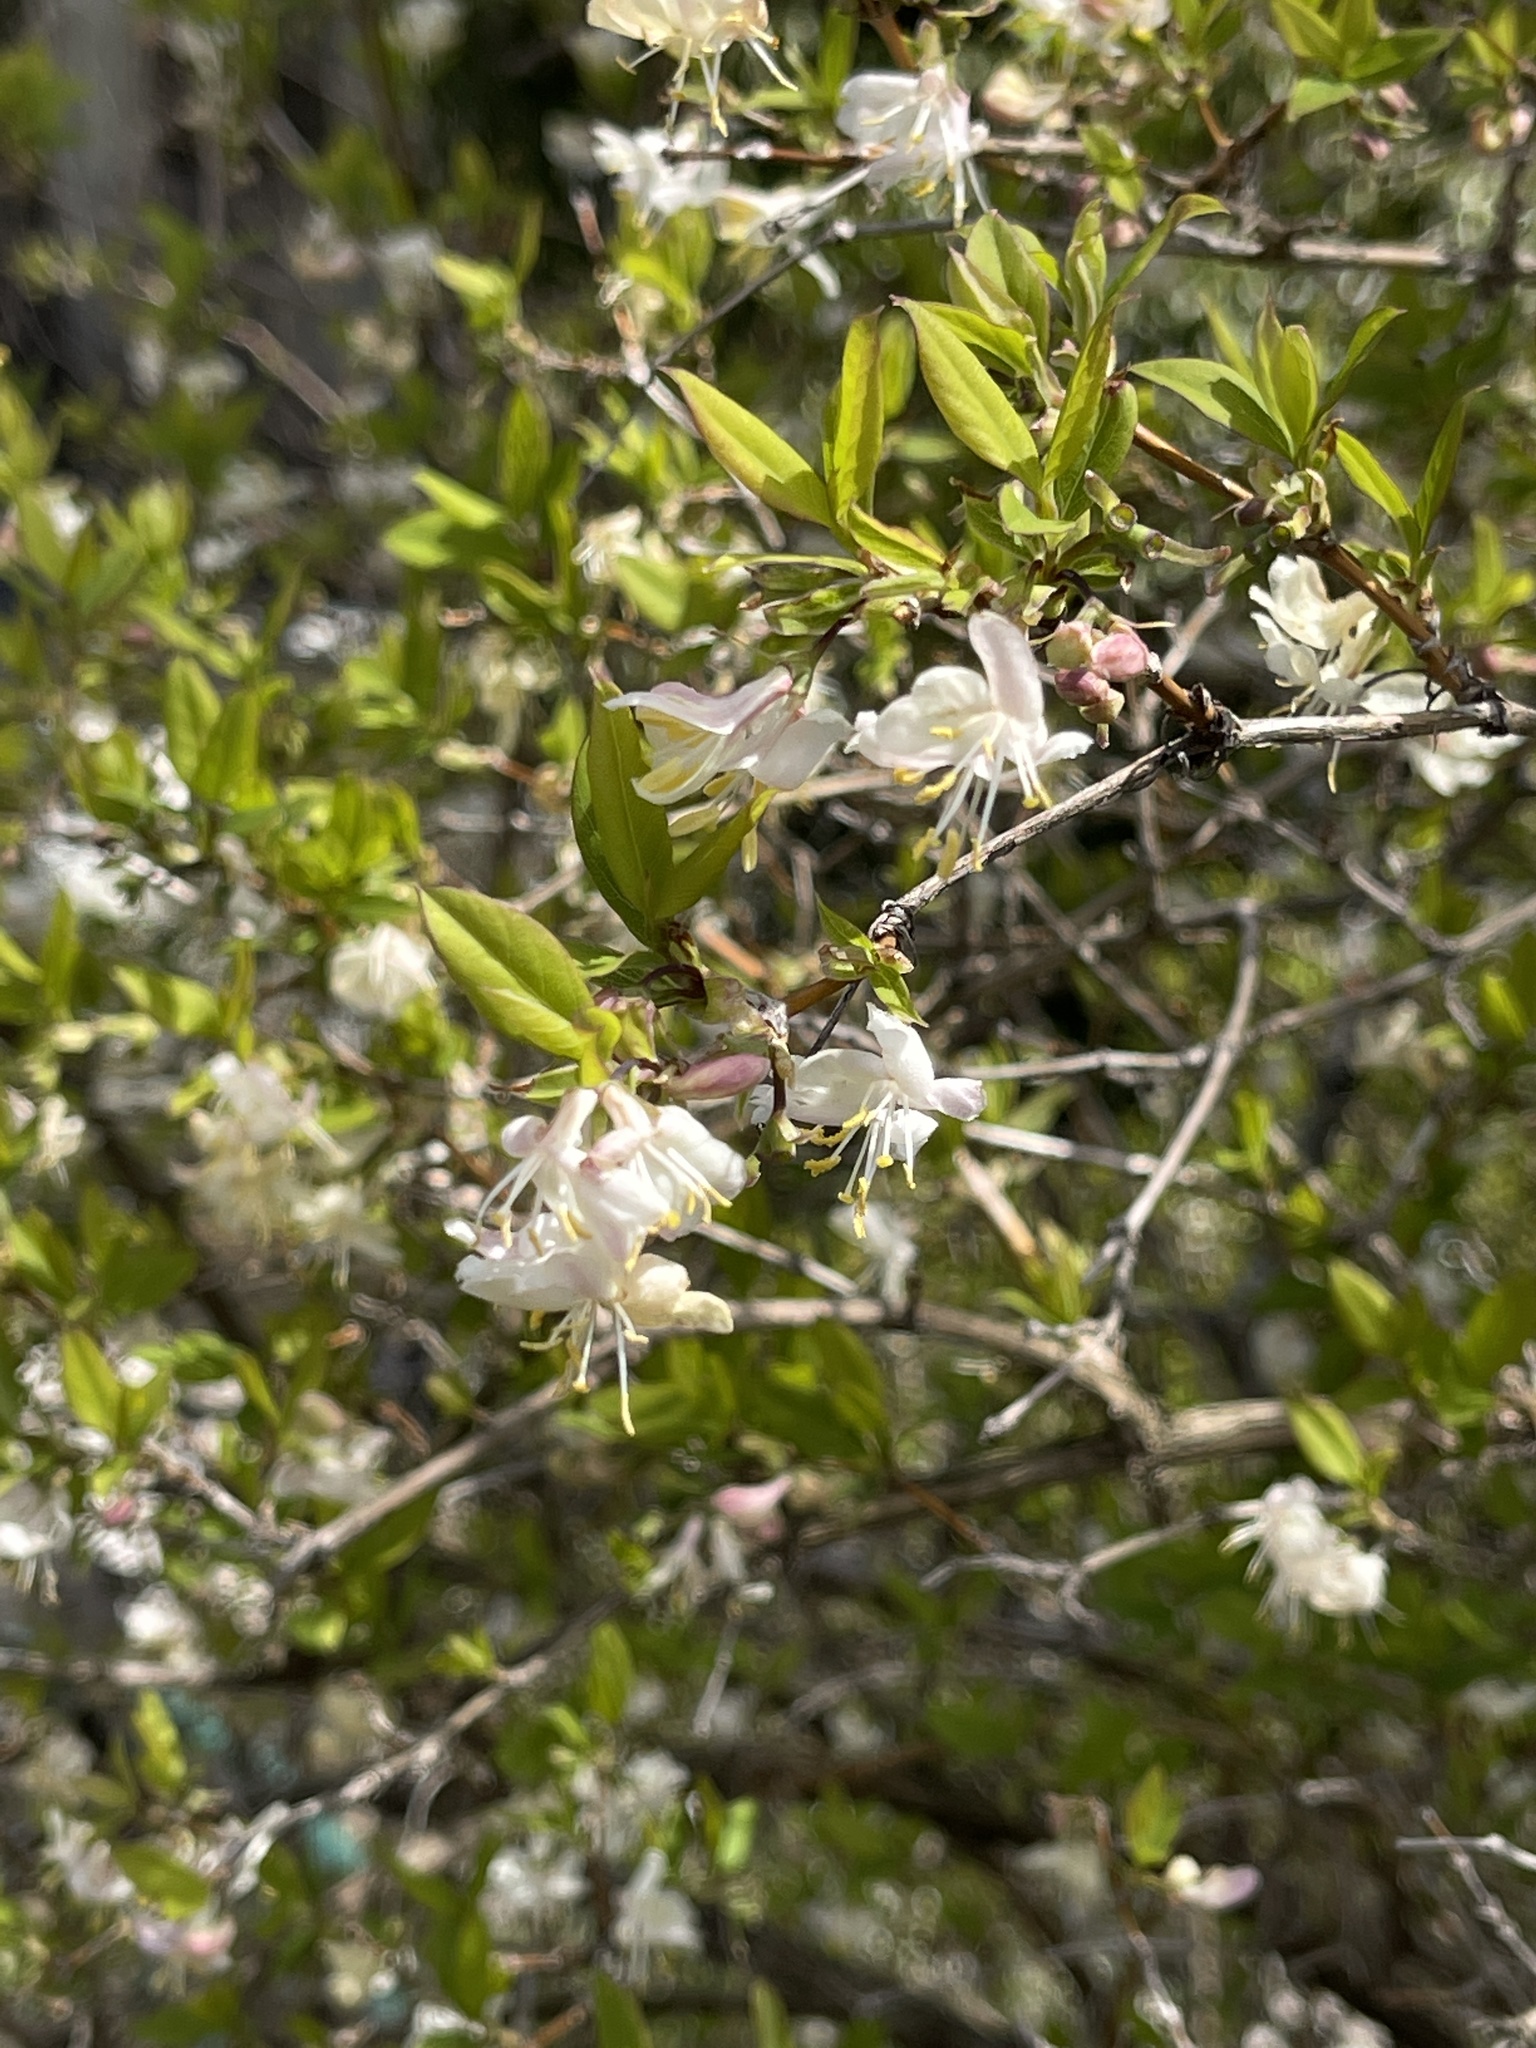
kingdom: Plantae
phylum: Tracheophyta
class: Magnoliopsida
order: Dipsacales
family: Caprifoliaceae
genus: Lonicera
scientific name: Lonicera fragrantissima
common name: Fragrant honeysuckle
